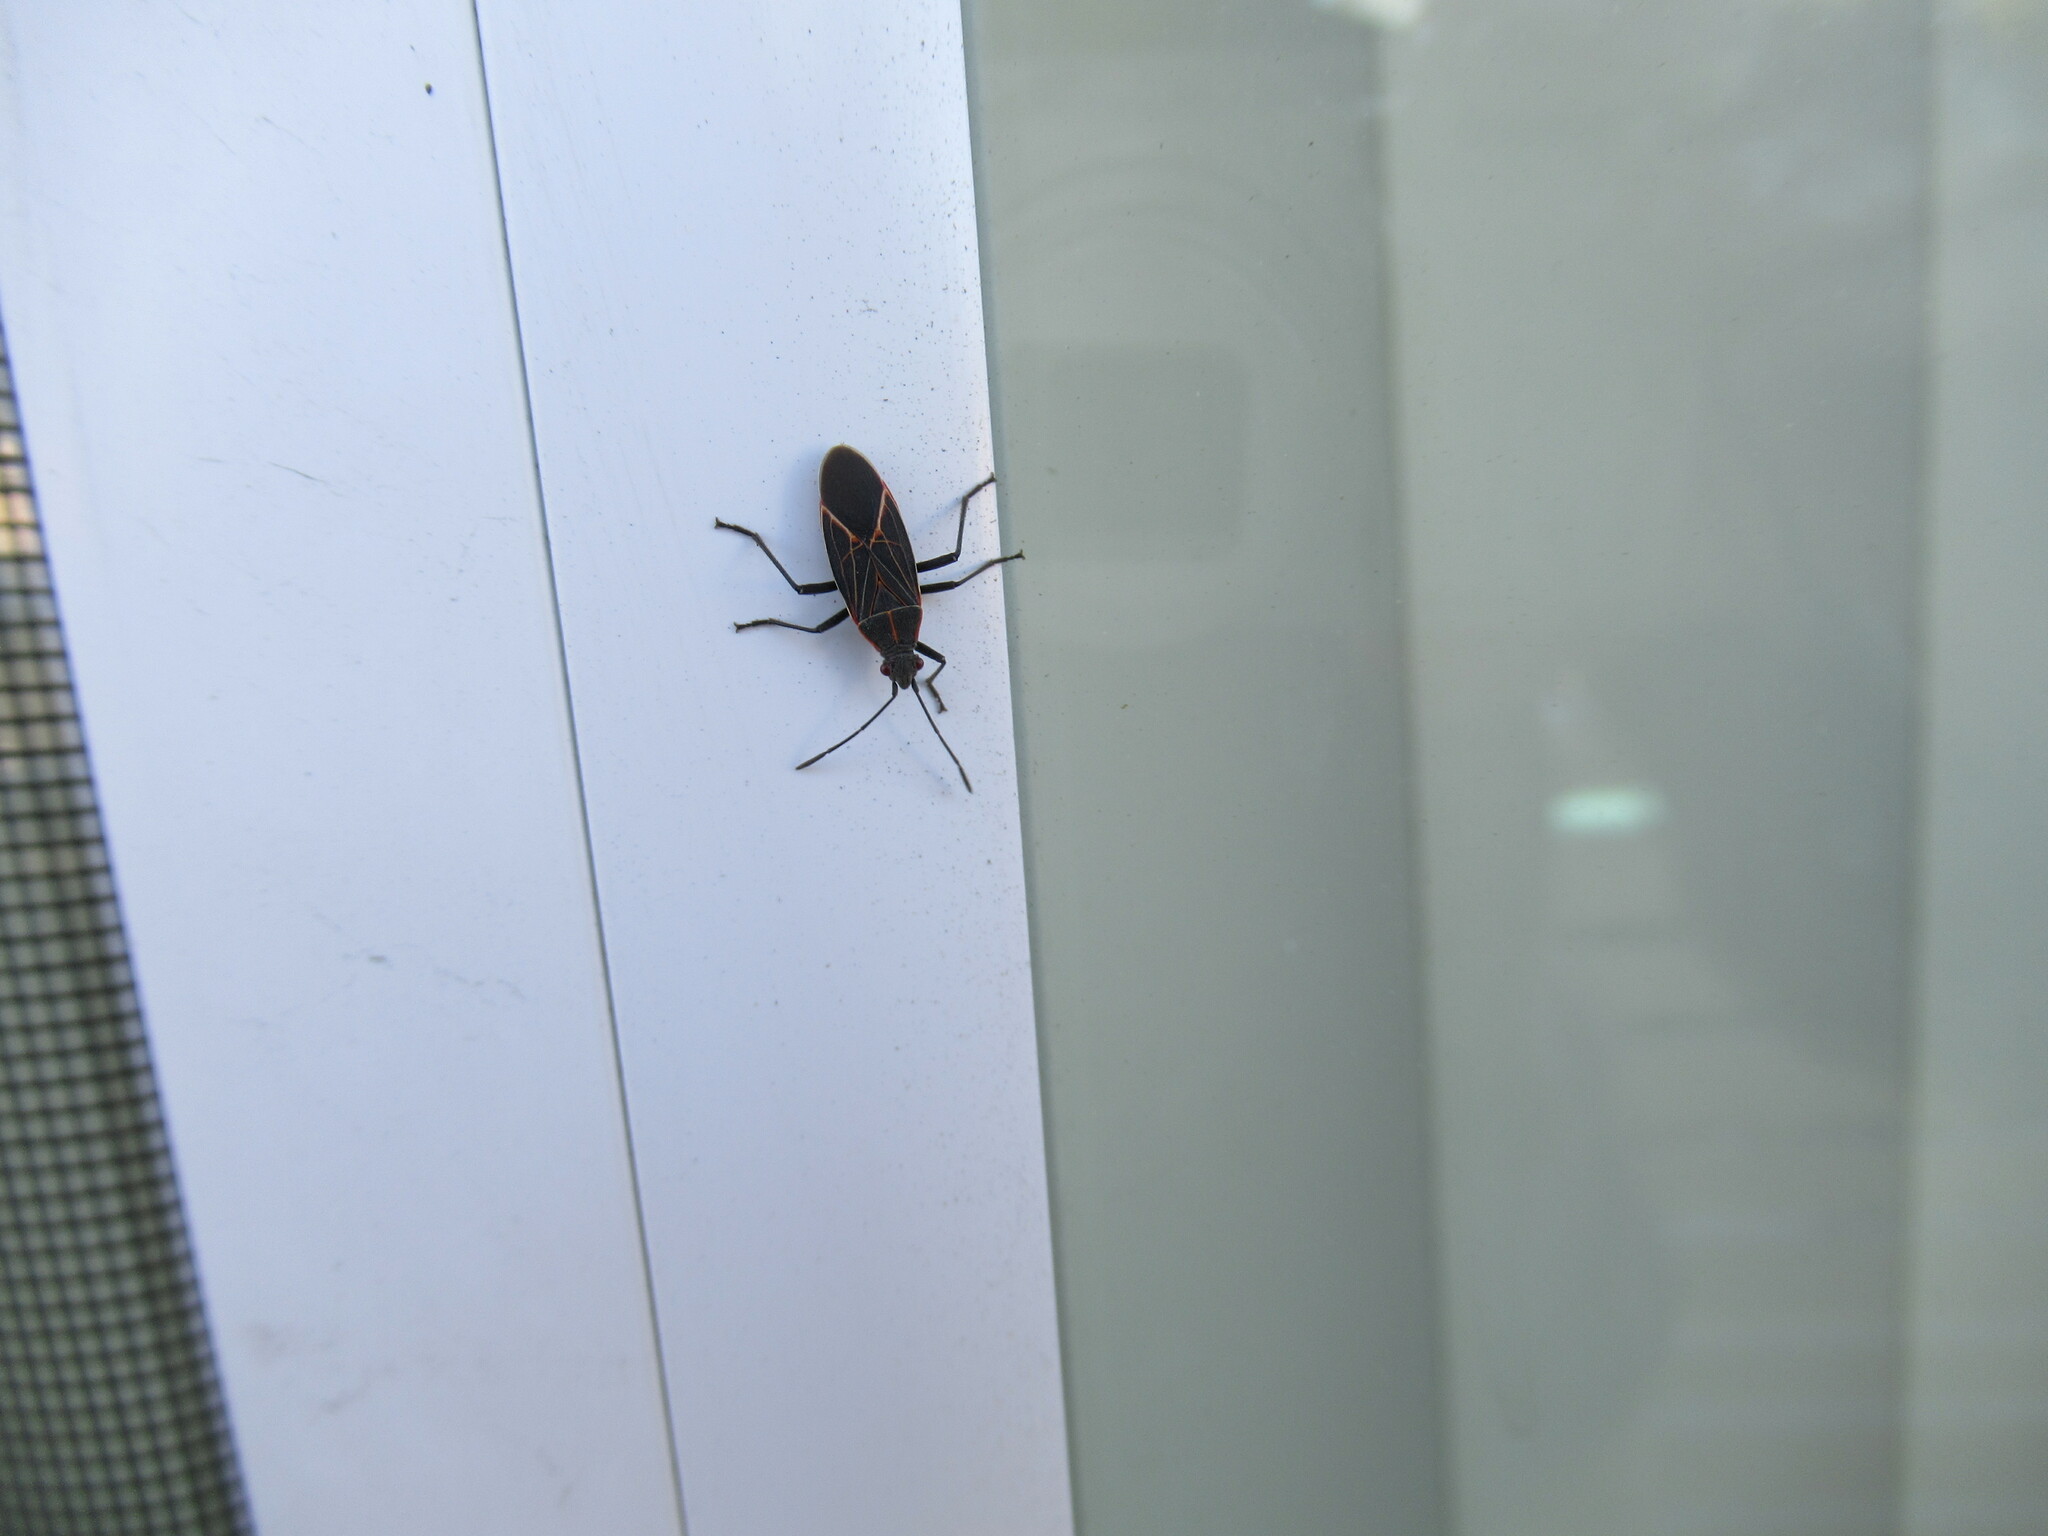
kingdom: Animalia
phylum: Arthropoda
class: Insecta
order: Hemiptera
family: Rhopalidae
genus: Boisea
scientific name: Boisea rubrolineata
